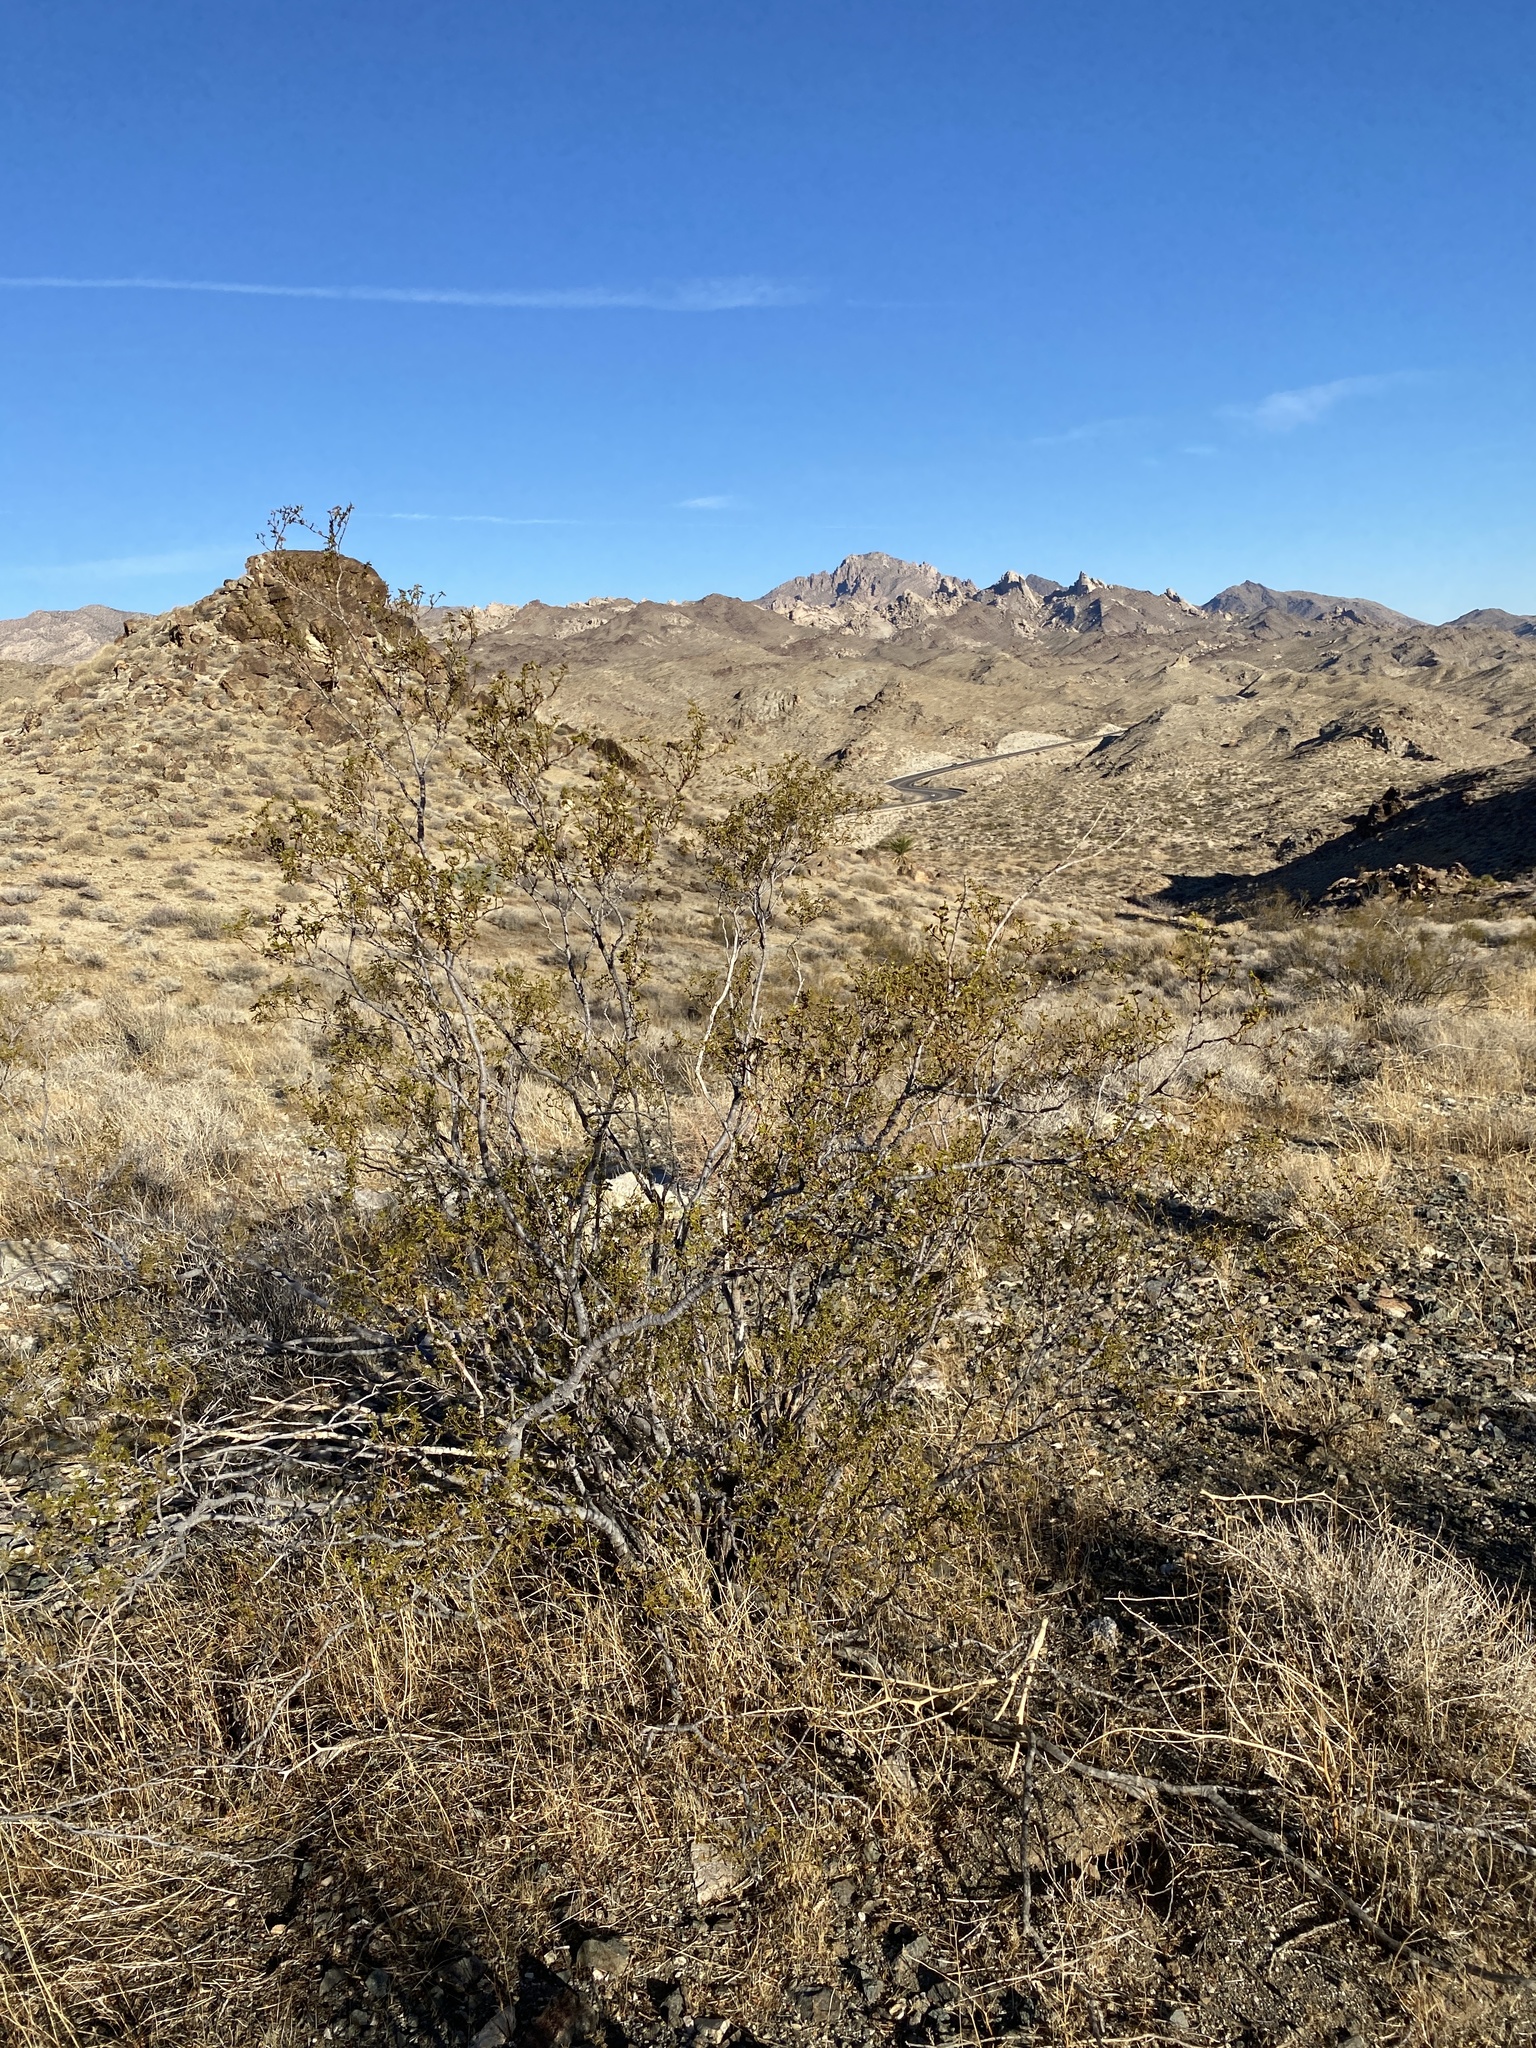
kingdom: Plantae
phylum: Tracheophyta
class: Magnoliopsida
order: Zygophyllales
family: Zygophyllaceae
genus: Larrea
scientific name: Larrea tridentata
